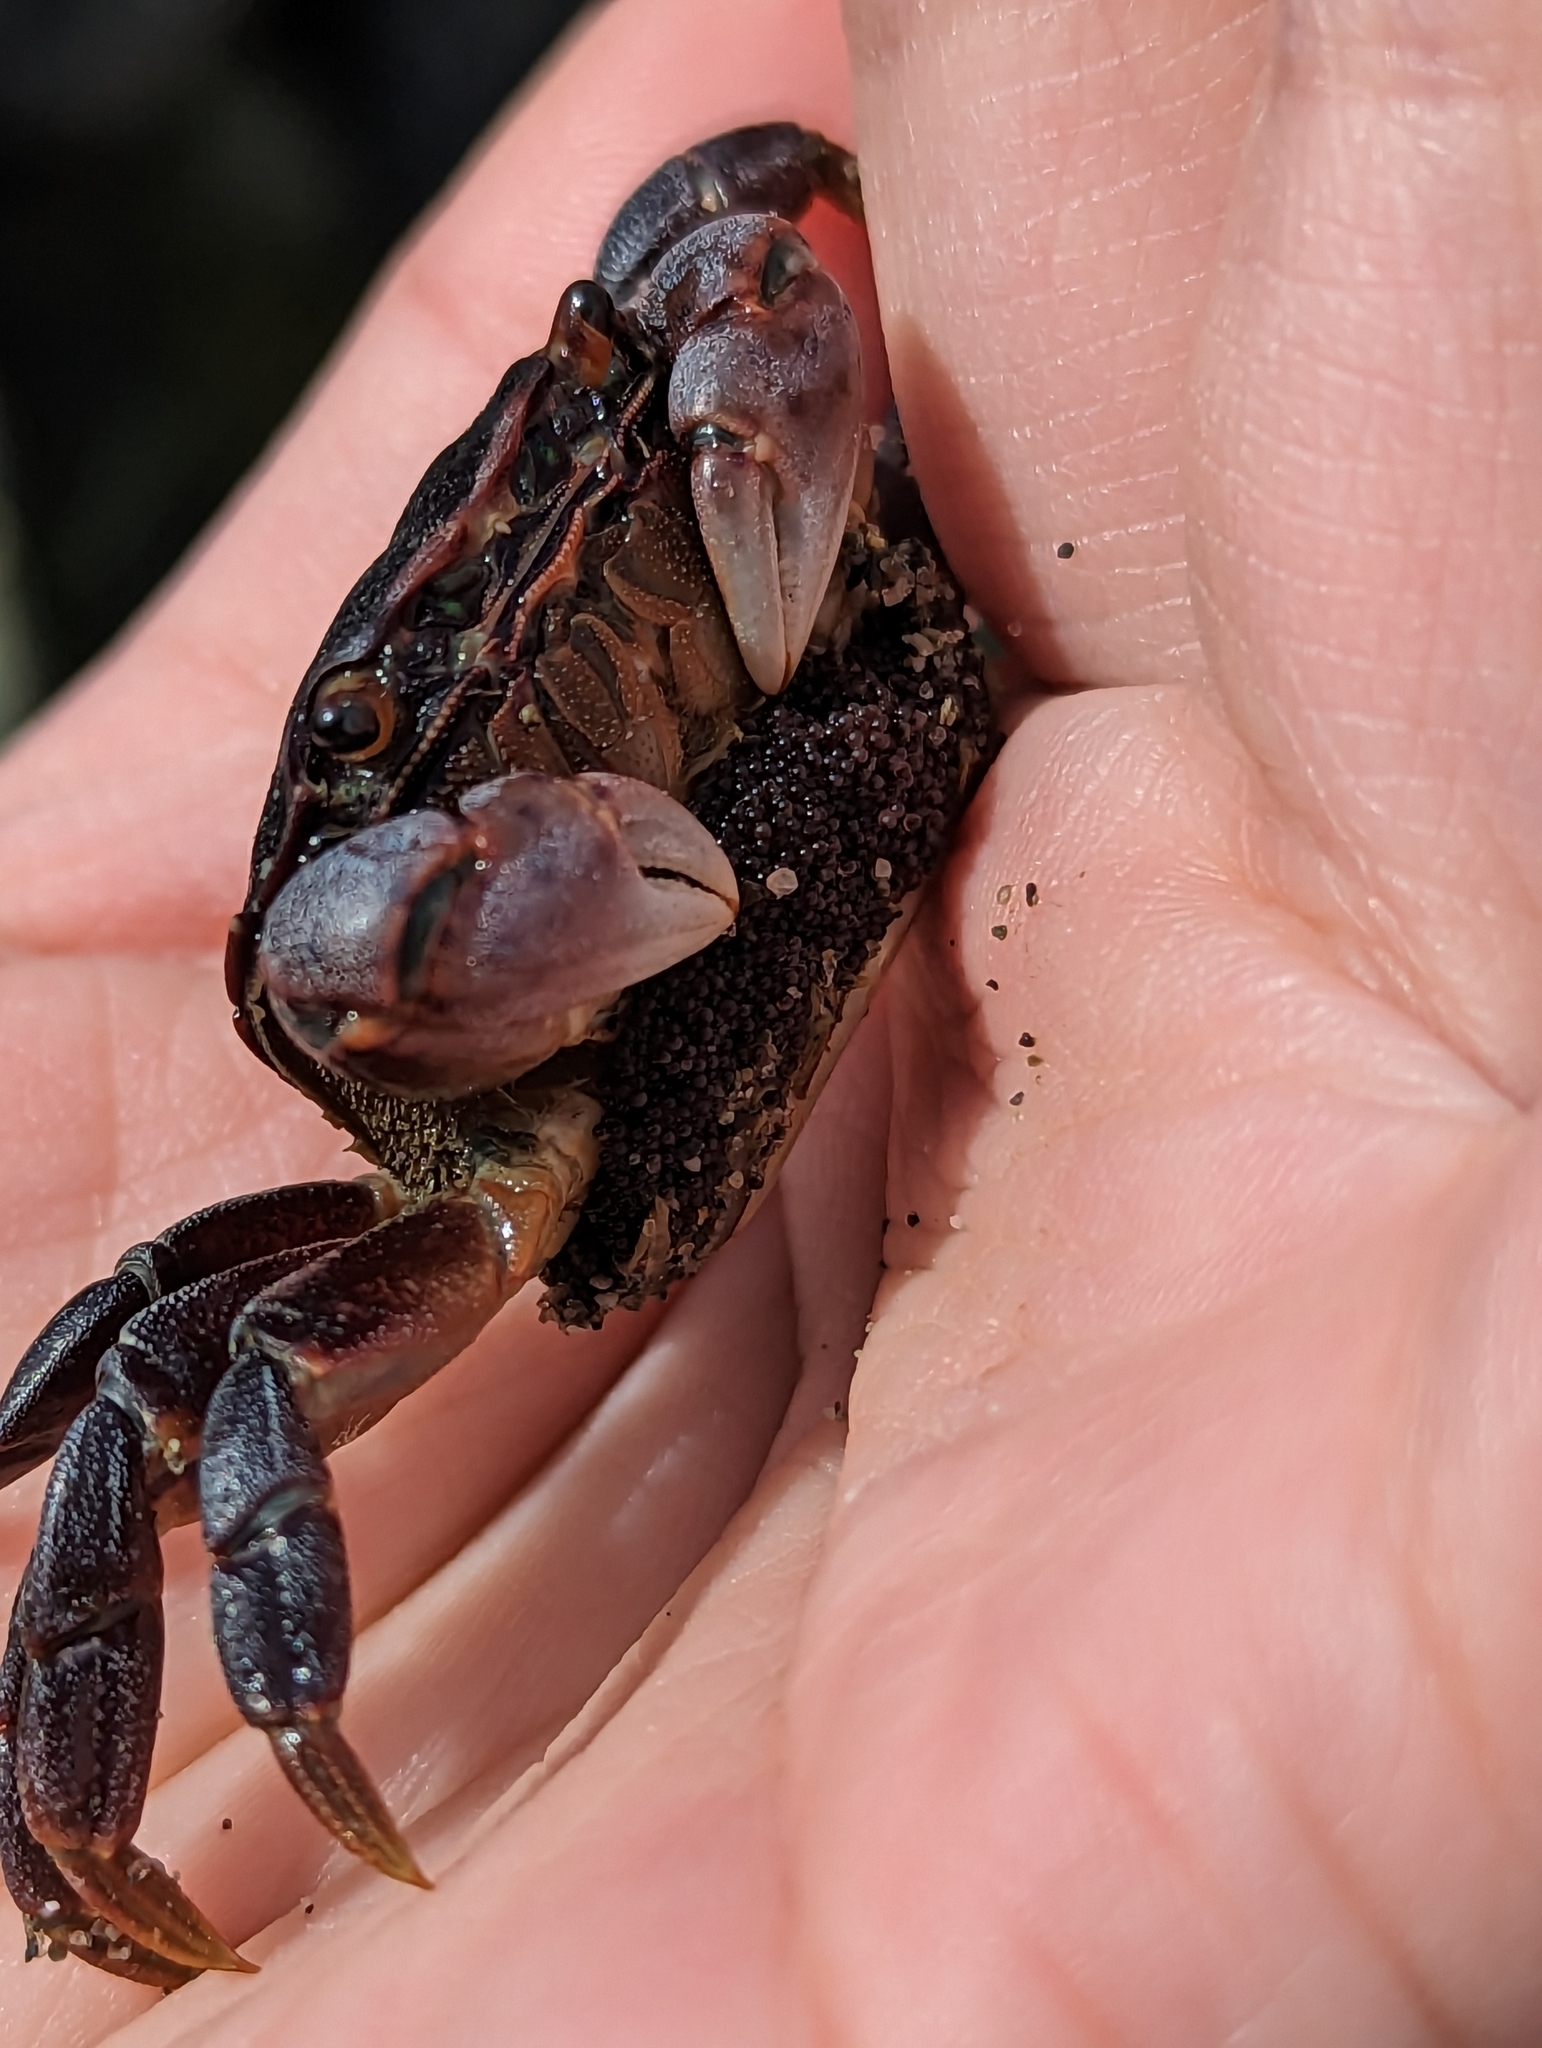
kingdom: Animalia
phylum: Arthropoda
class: Malacostraca
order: Decapoda
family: Varunidae
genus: Hemigrapsus
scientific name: Hemigrapsus nudus
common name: Purple shore crab
